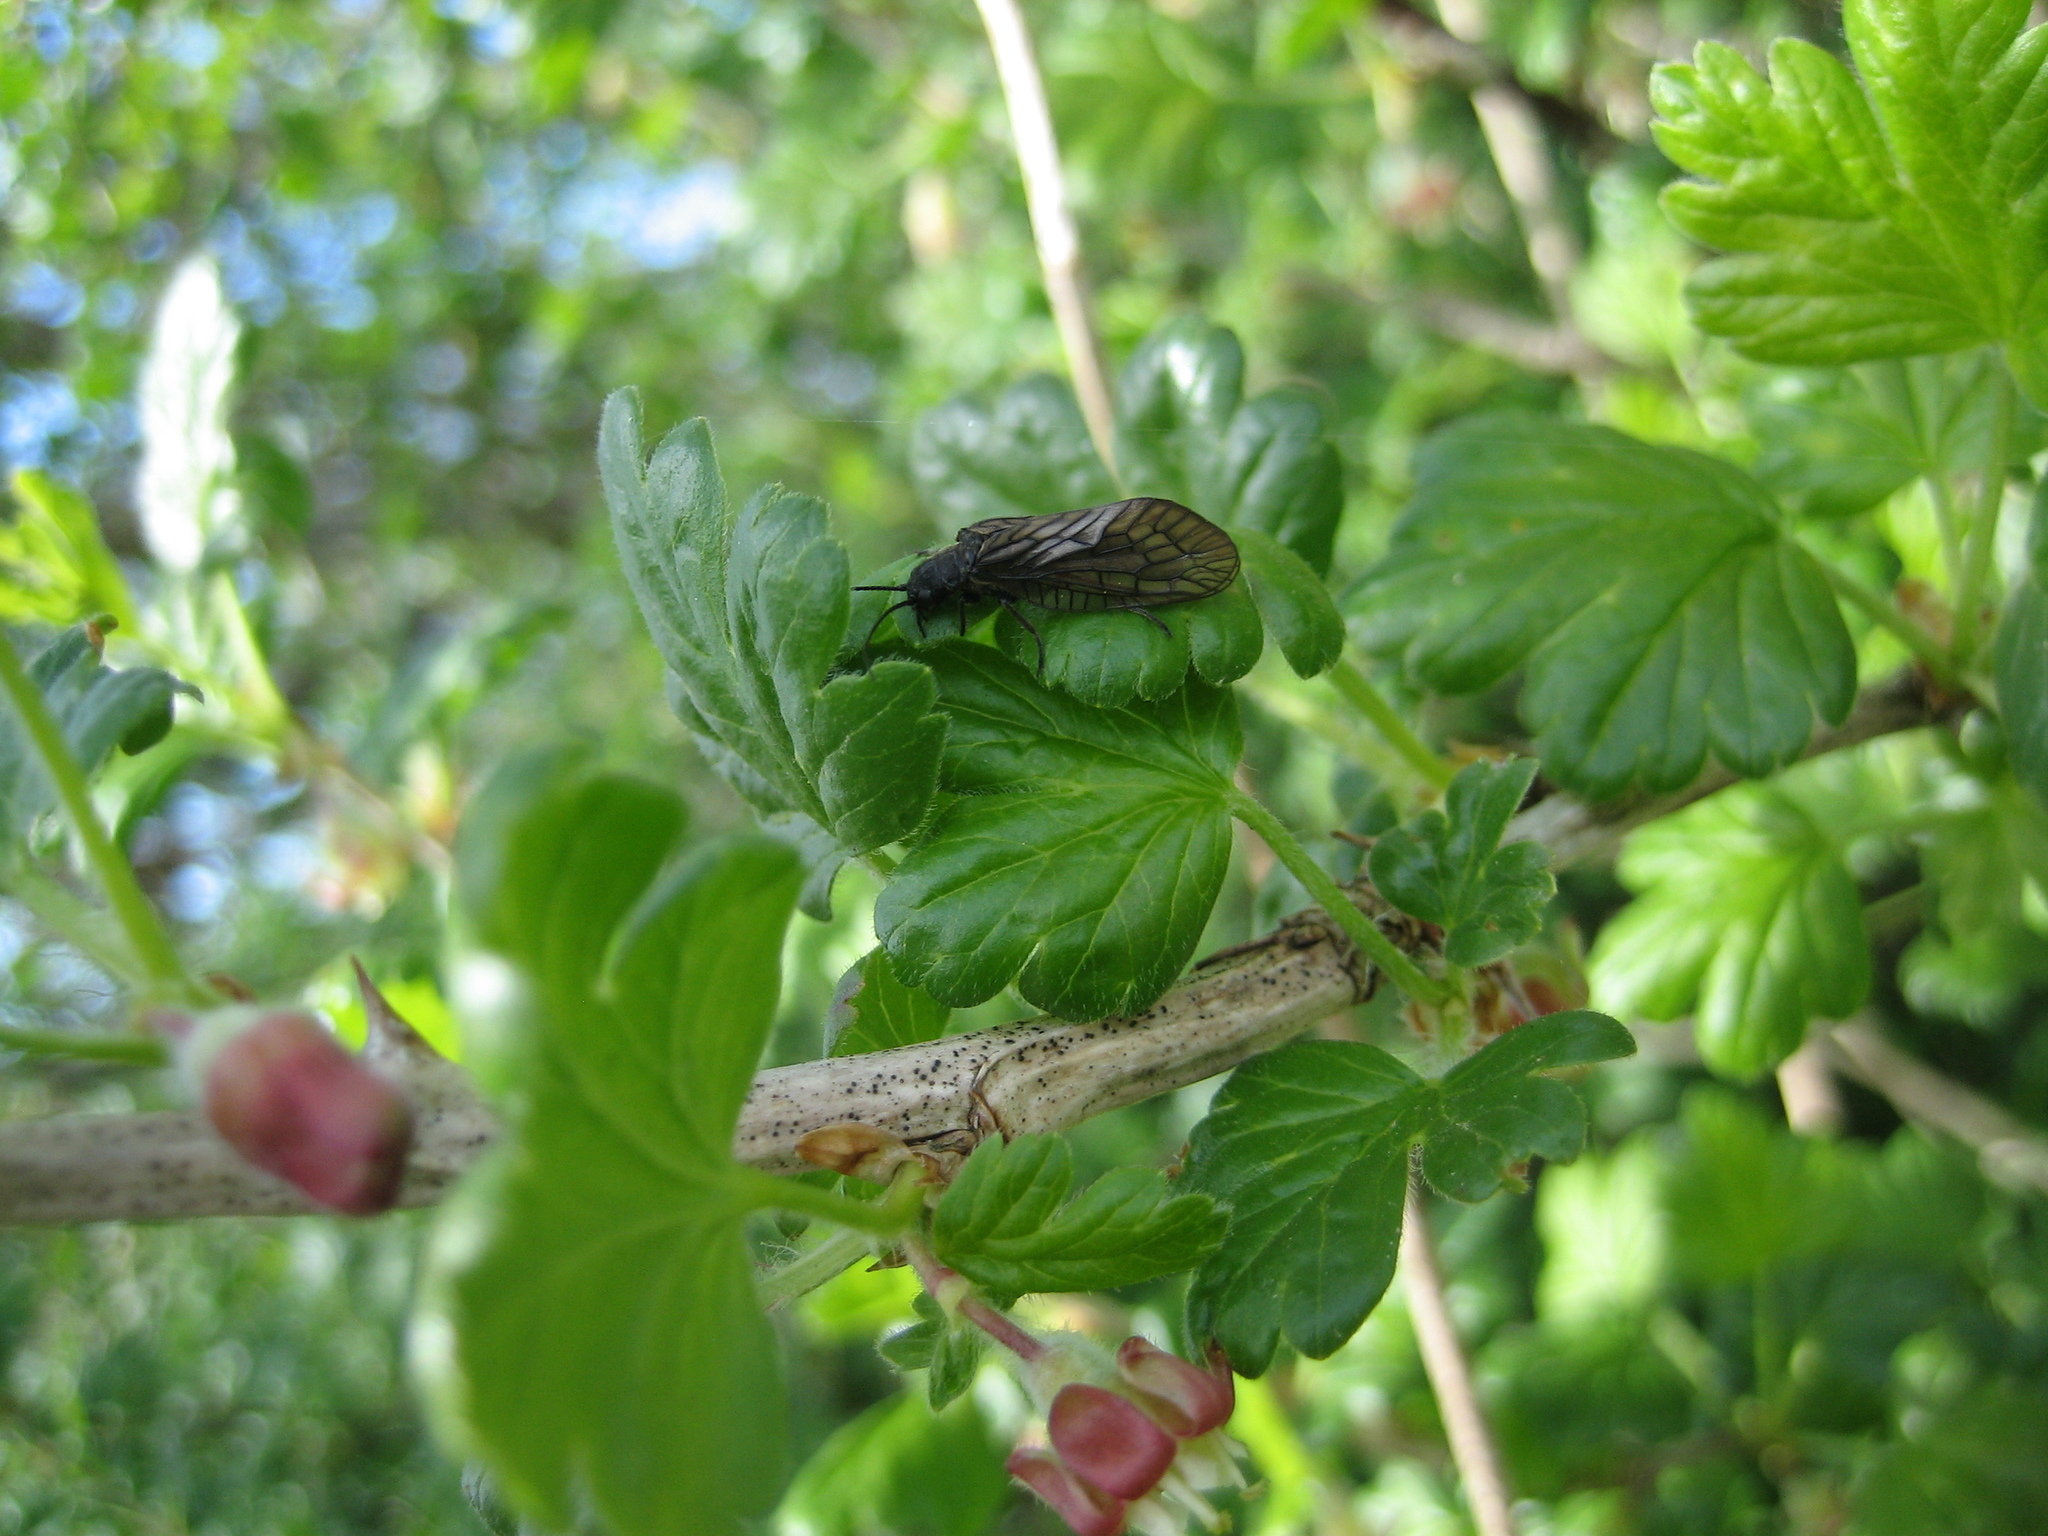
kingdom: Animalia
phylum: Arthropoda
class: Insecta
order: Megaloptera
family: Sialidae
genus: Sialis
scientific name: Sialis
